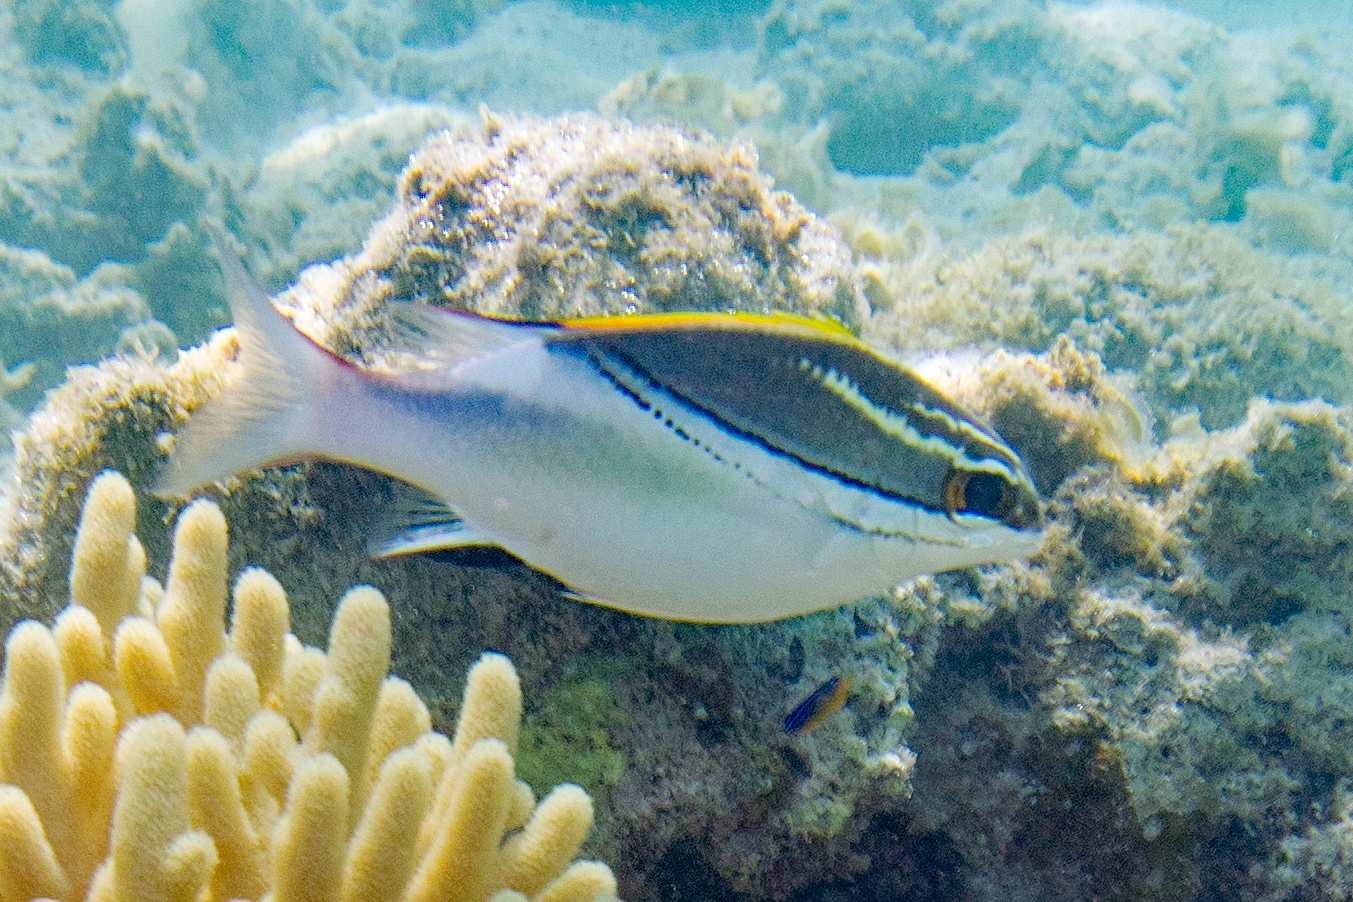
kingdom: Animalia
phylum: Chordata
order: Perciformes
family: Nemipteridae
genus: Scolopsis
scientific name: Scolopsis bilineata
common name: Two-lined monocle bream
